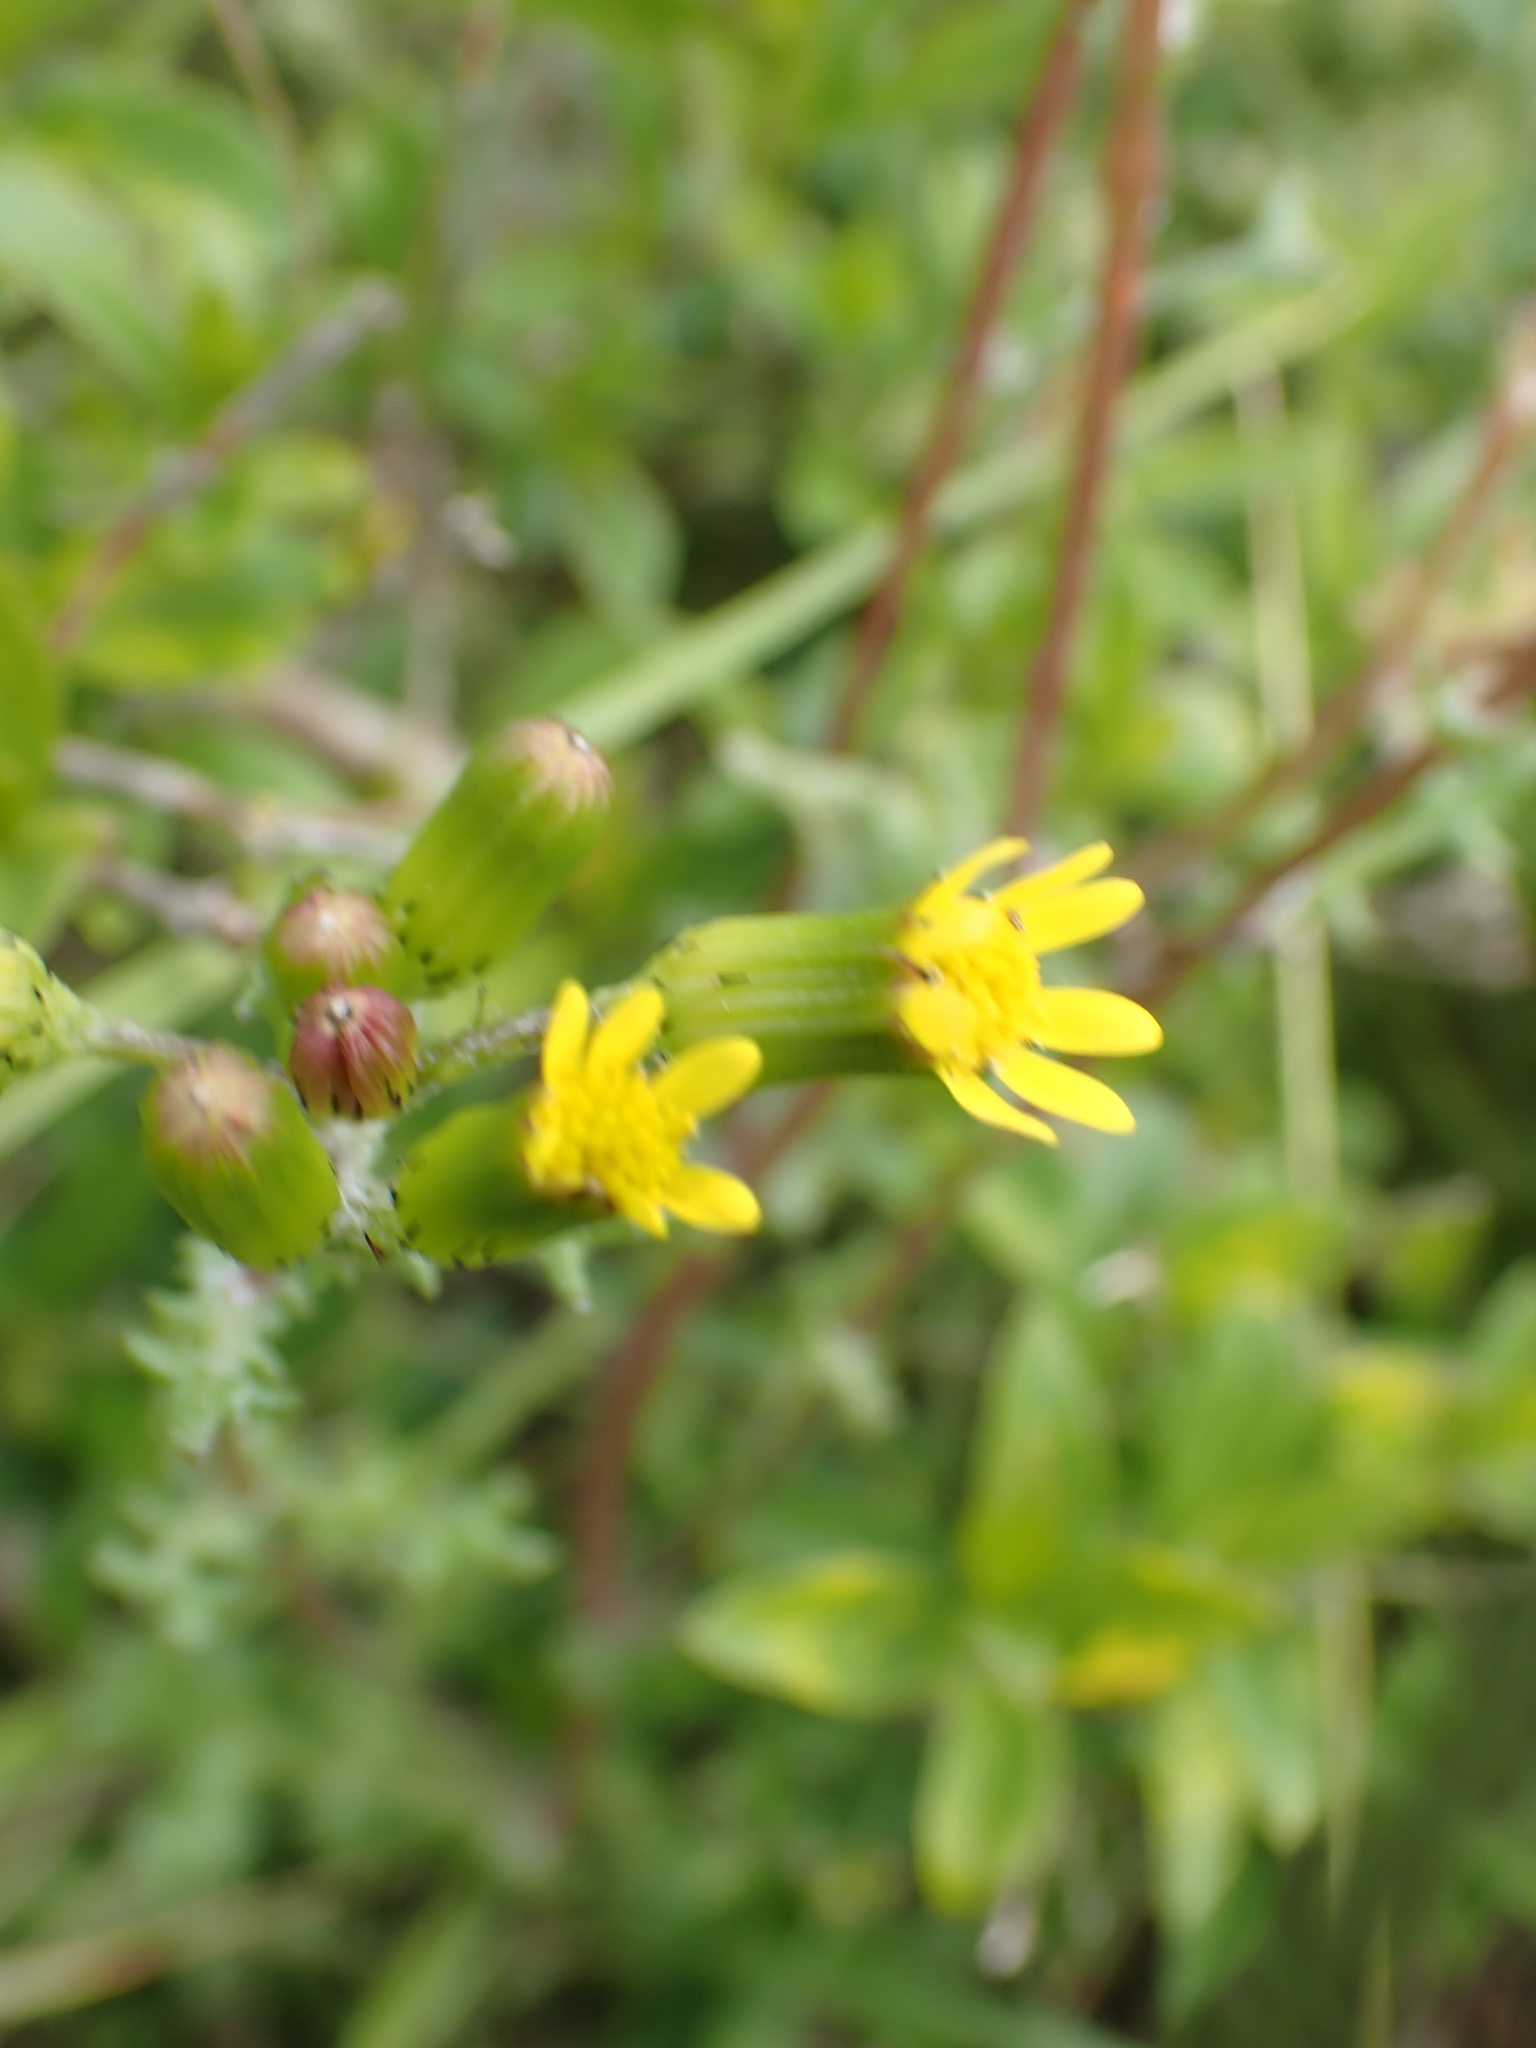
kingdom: Plantae
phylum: Tracheophyta
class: Magnoliopsida
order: Asterales
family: Asteraceae
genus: Senecio
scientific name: Senecio vulgaris
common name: Old-man-in-the-spring
